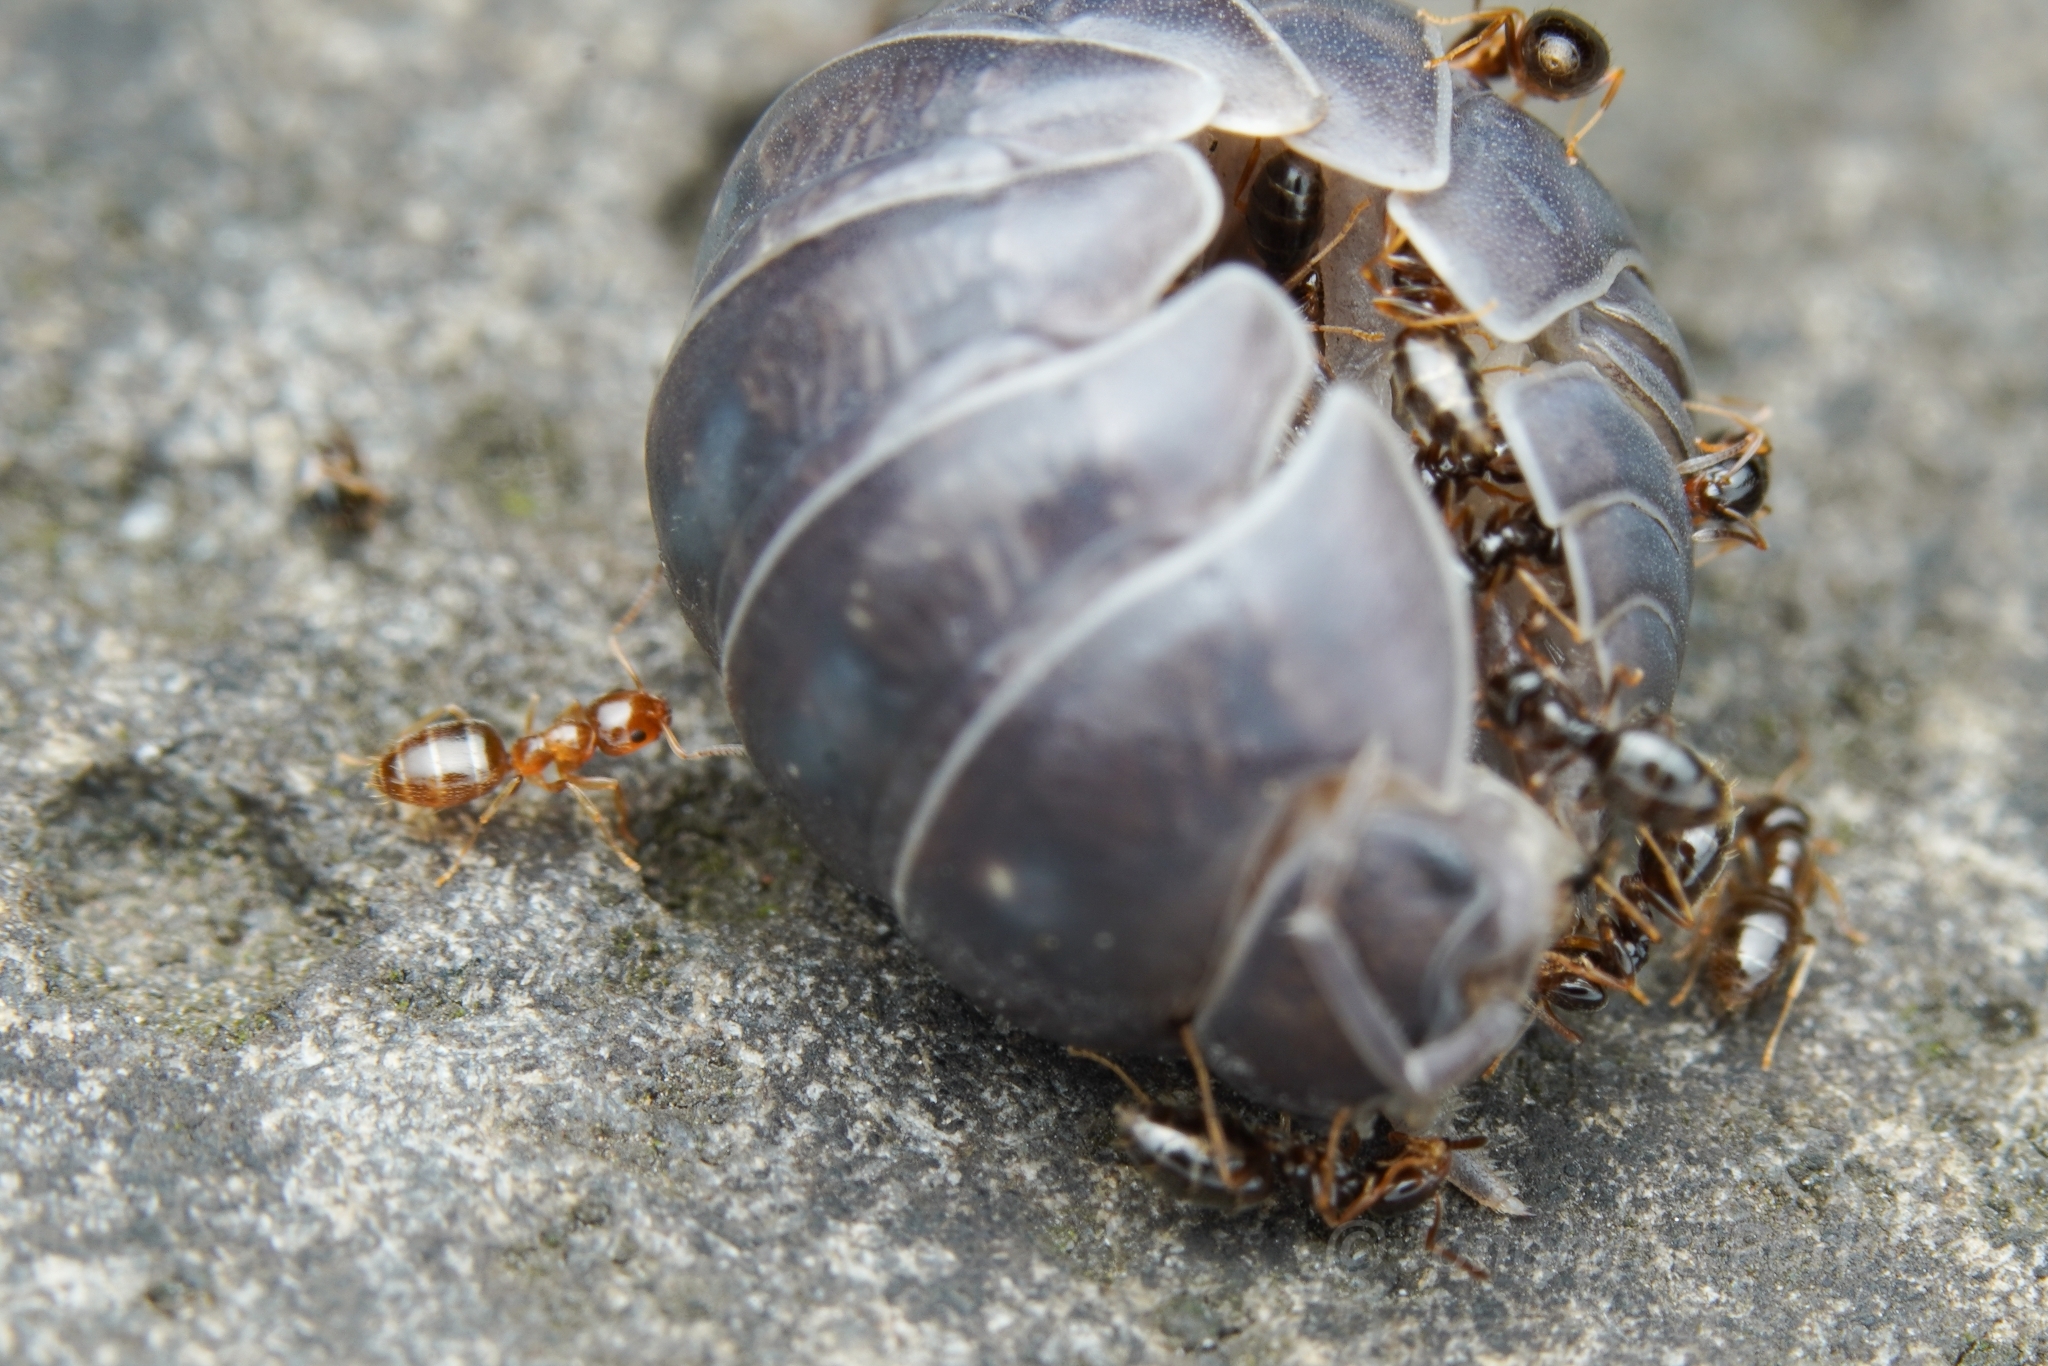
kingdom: Animalia
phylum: Arthropoda
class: Insecta
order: Hymenoptera
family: Formicidae
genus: Plagiolepis
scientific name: Plagiolepis manczshurica
